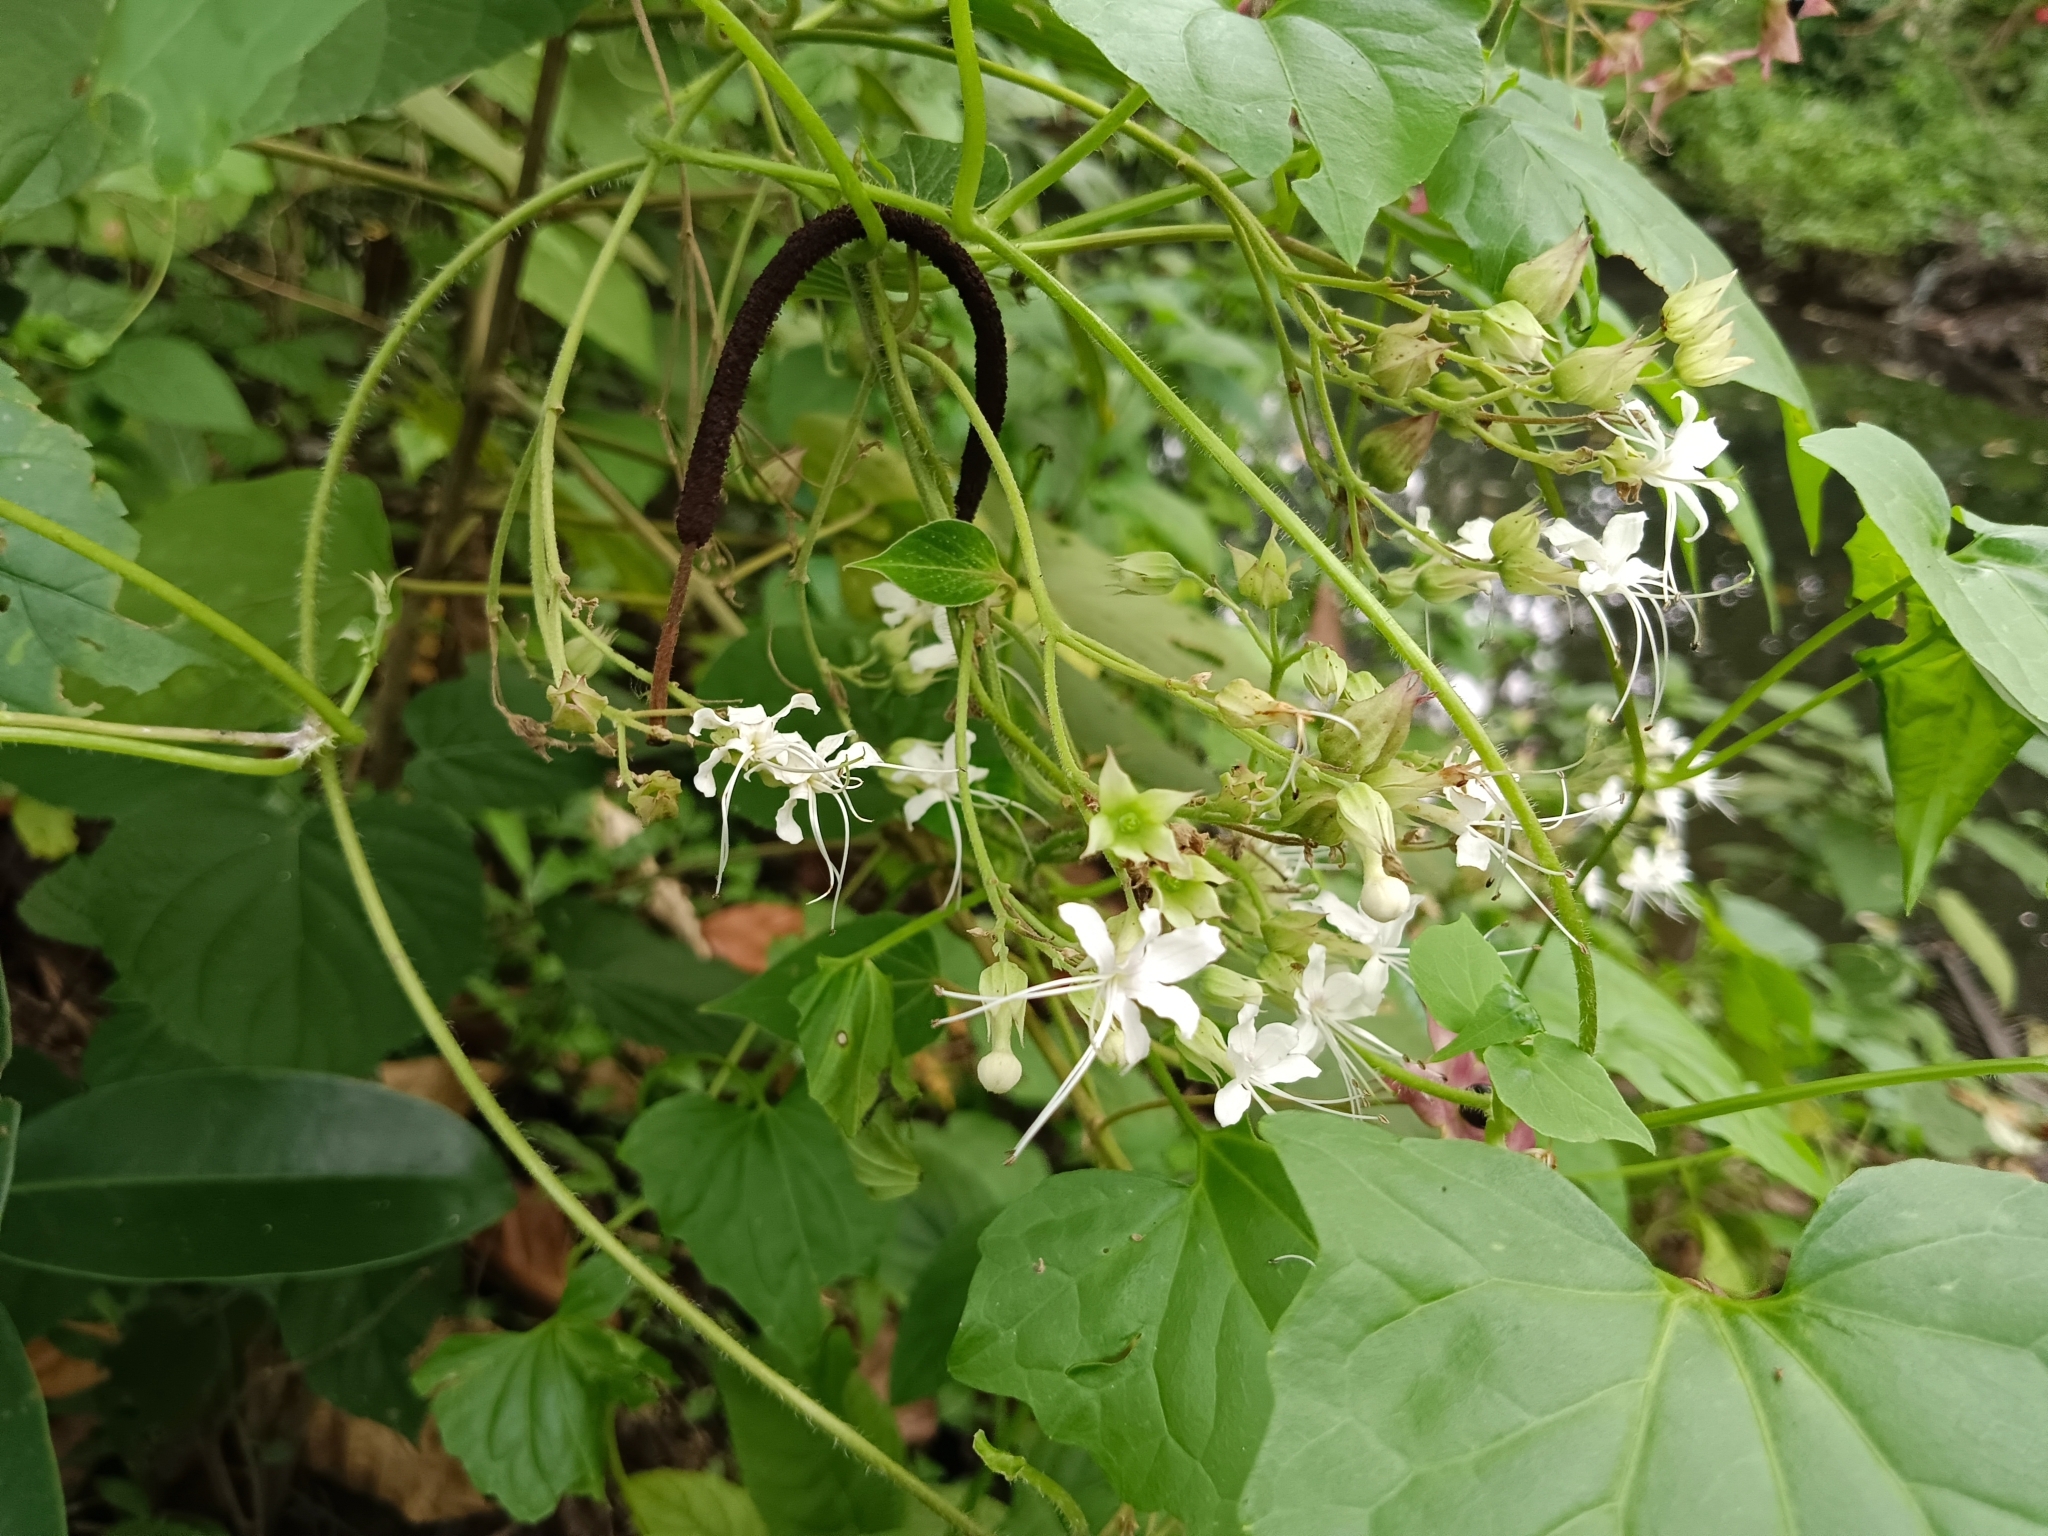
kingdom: Plantae
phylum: Tracheophyta
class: Magnoliopsida
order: Lamiales
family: Lamiaceae
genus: Clerodendrum
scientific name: Clerodendrum infortunatum
